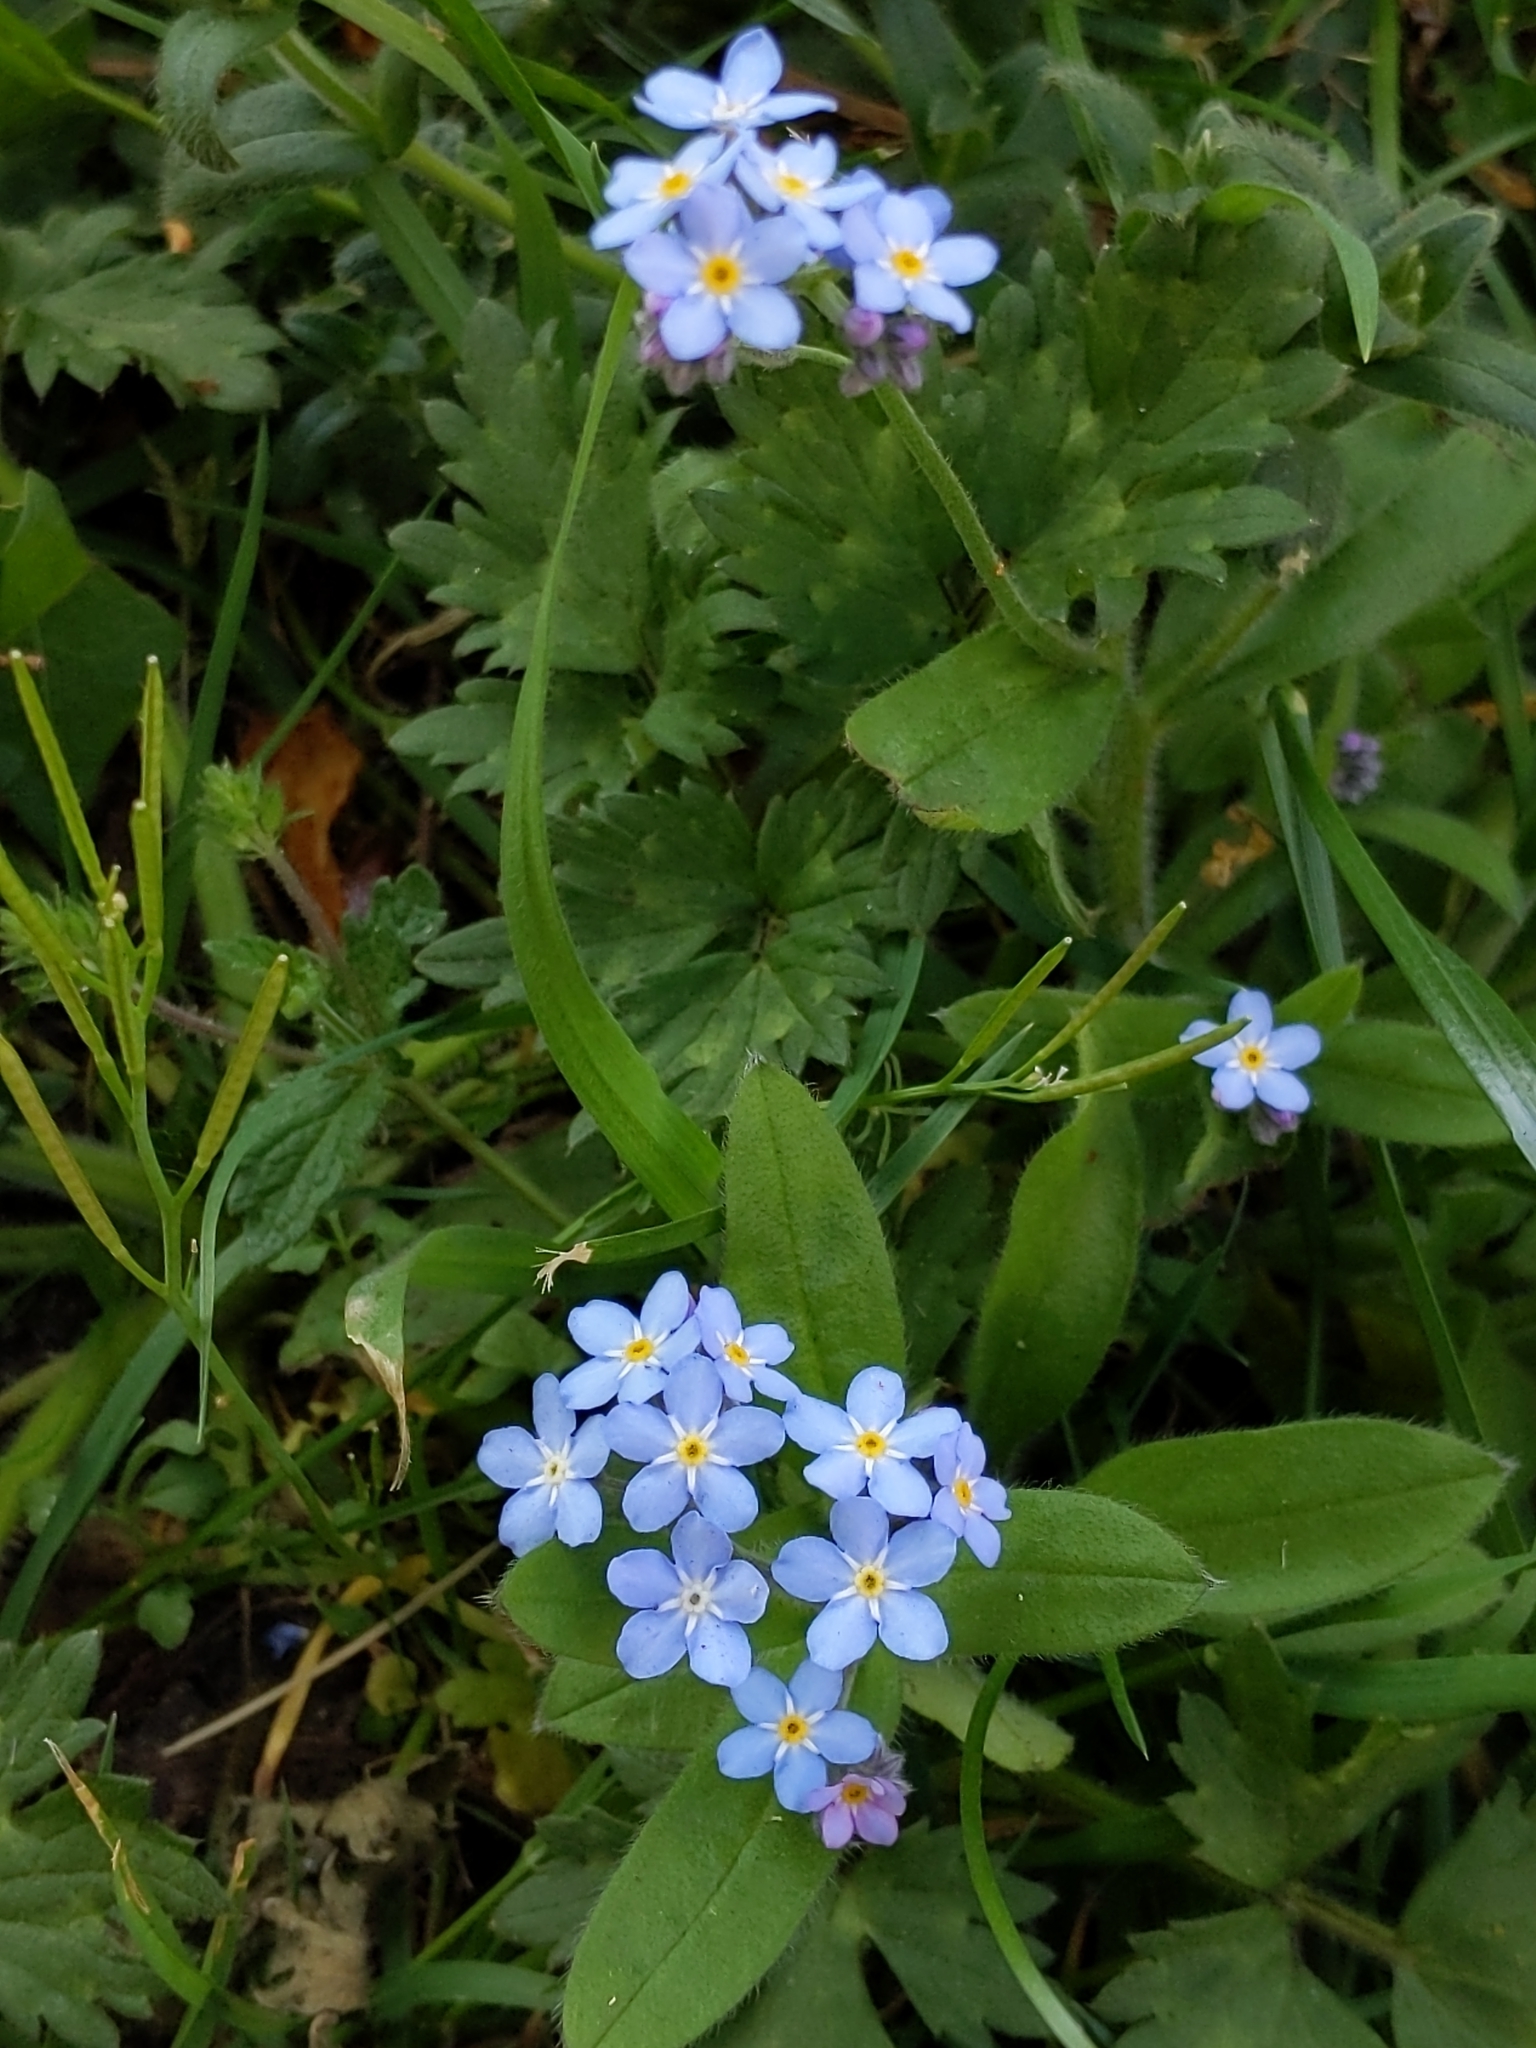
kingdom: Plantae
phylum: Tracheophyta
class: Magnoliopsida
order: Boraginales
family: Boraginaceae
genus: Myosotis
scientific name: Myosotis sylvatica
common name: Wood forget-me-not
